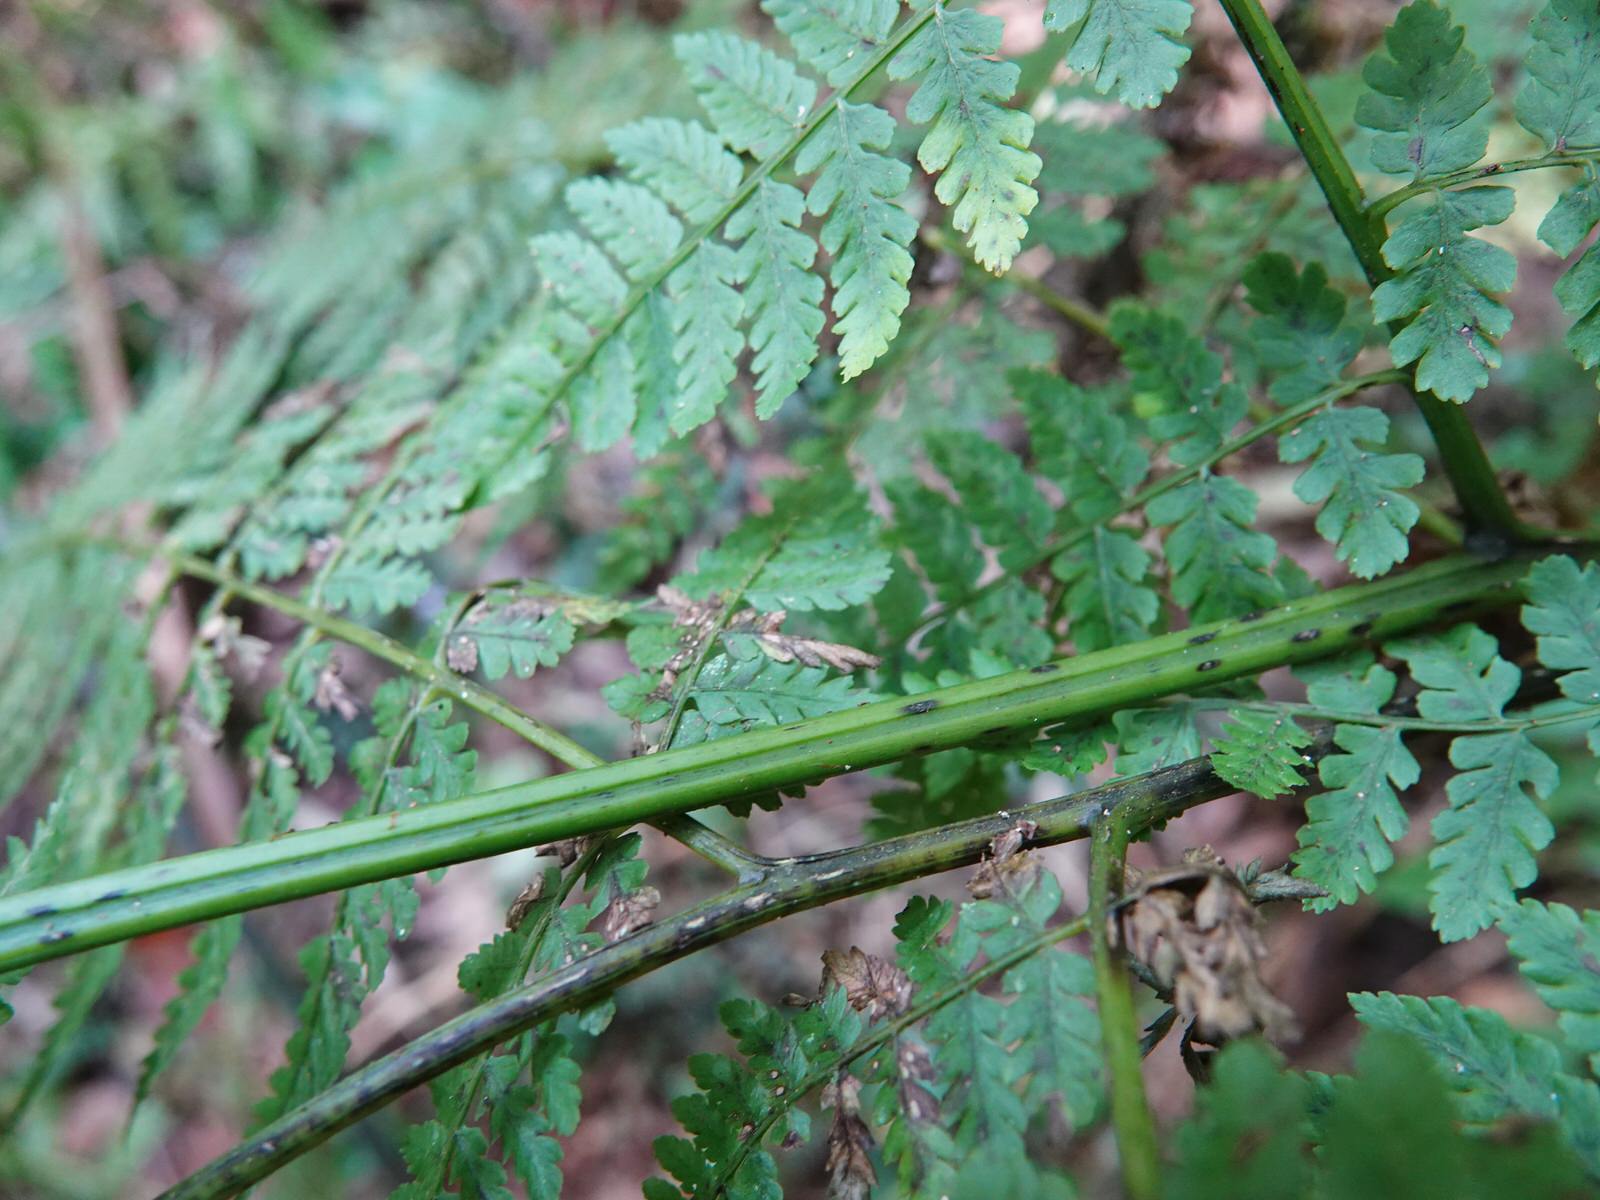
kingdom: Plantae
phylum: Tracheophyta
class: Polypodiopsida
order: Polypodiales
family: Athyriaceae
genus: Diplazium
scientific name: Diplazium australe
